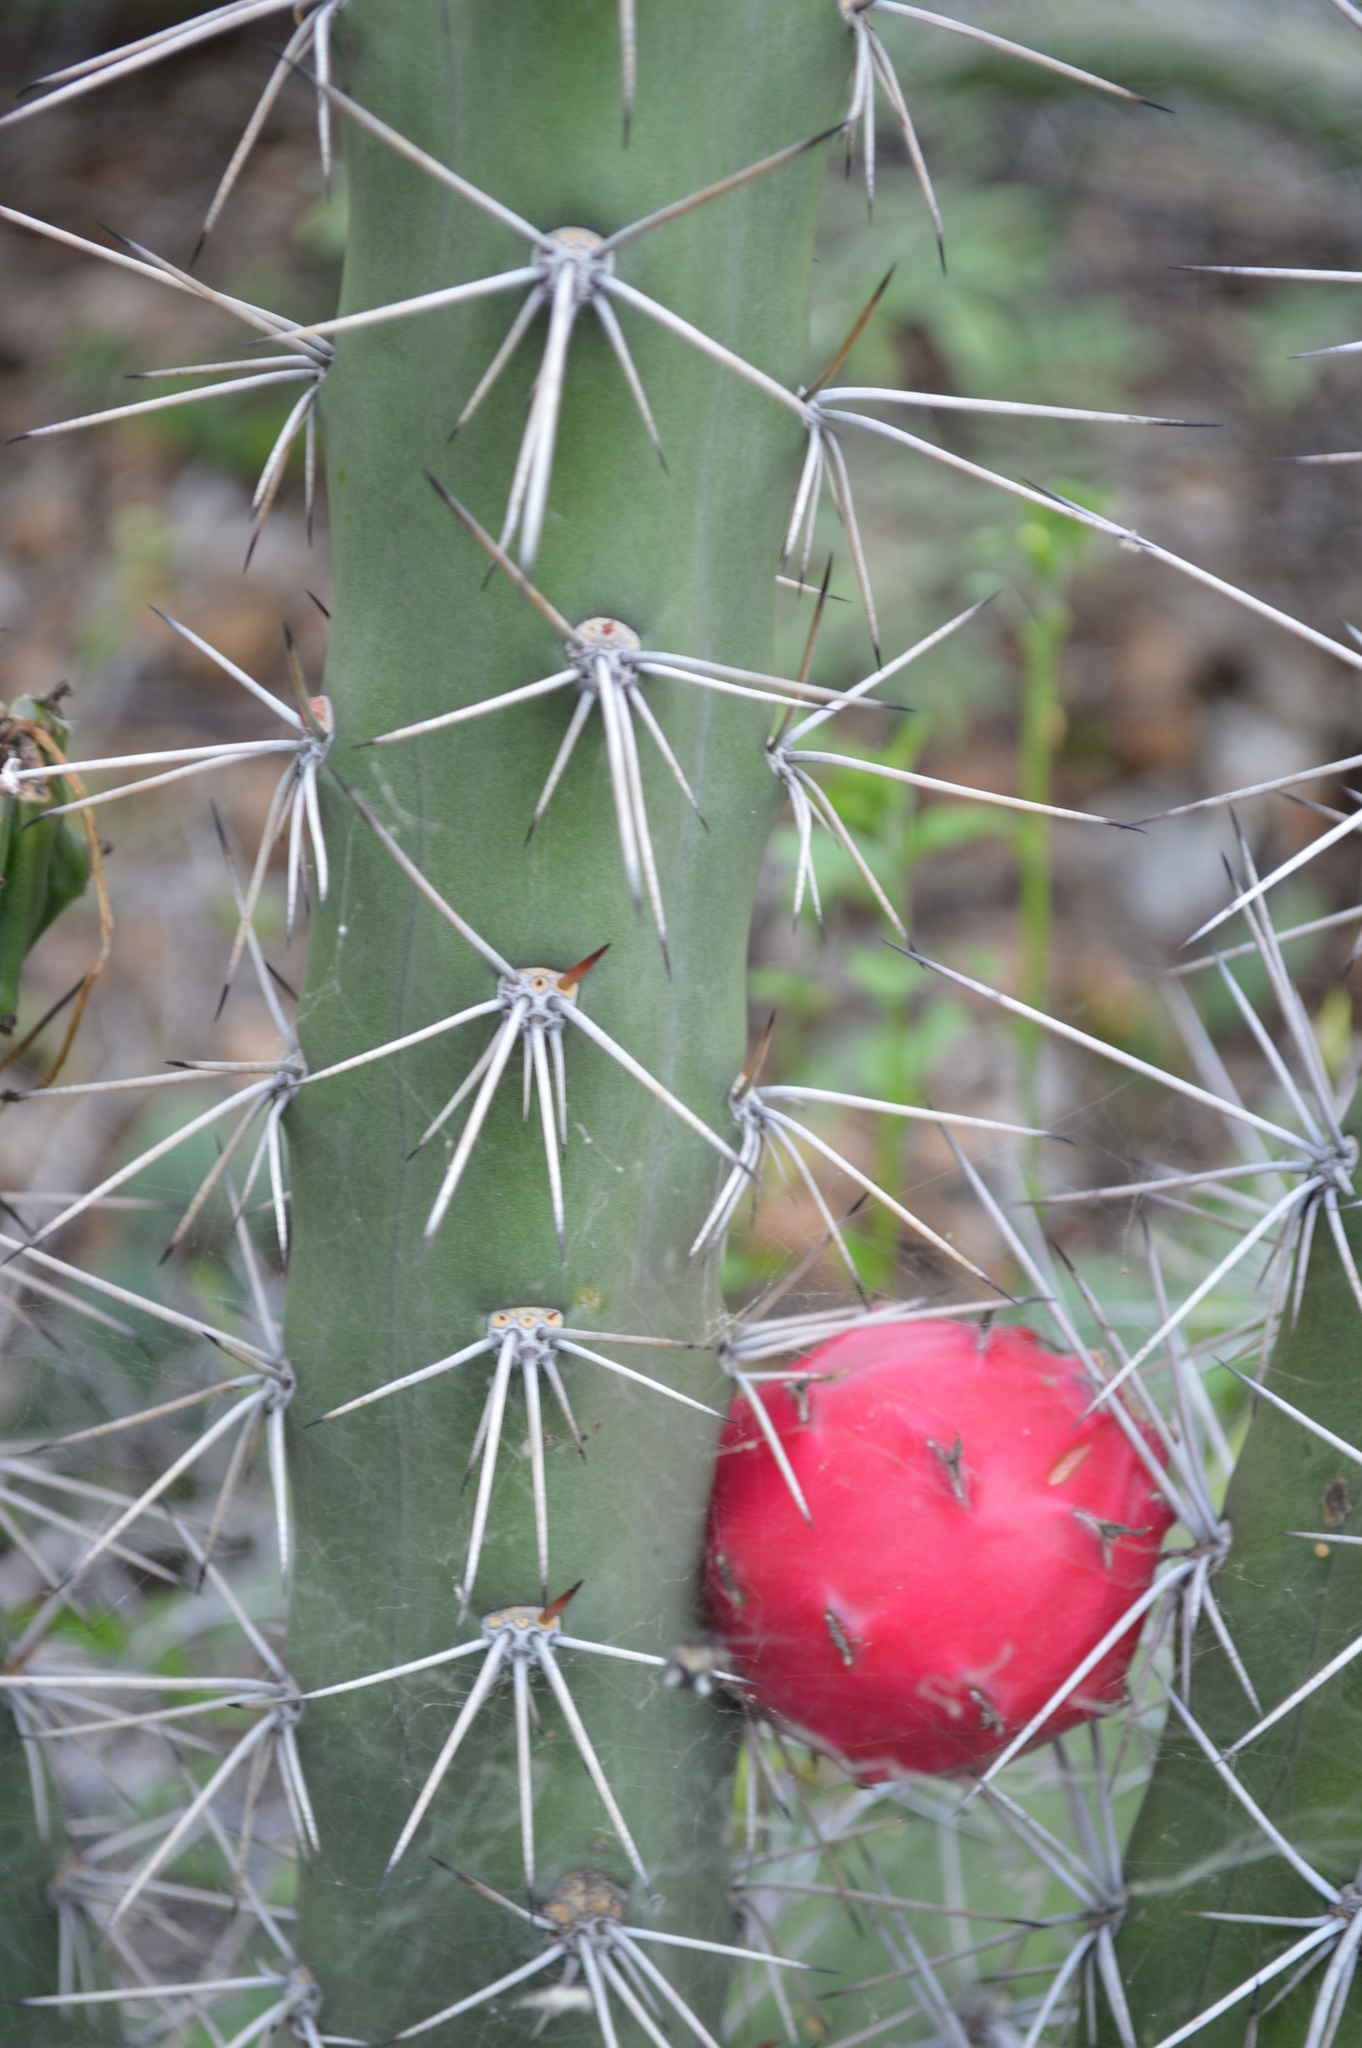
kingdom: Plantae
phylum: Tracheophyta
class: Magnoliopsida
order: Caryophyllales
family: Cactaceae
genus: Harrisia
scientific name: Harrisia pomanensis
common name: Midnight-lady
